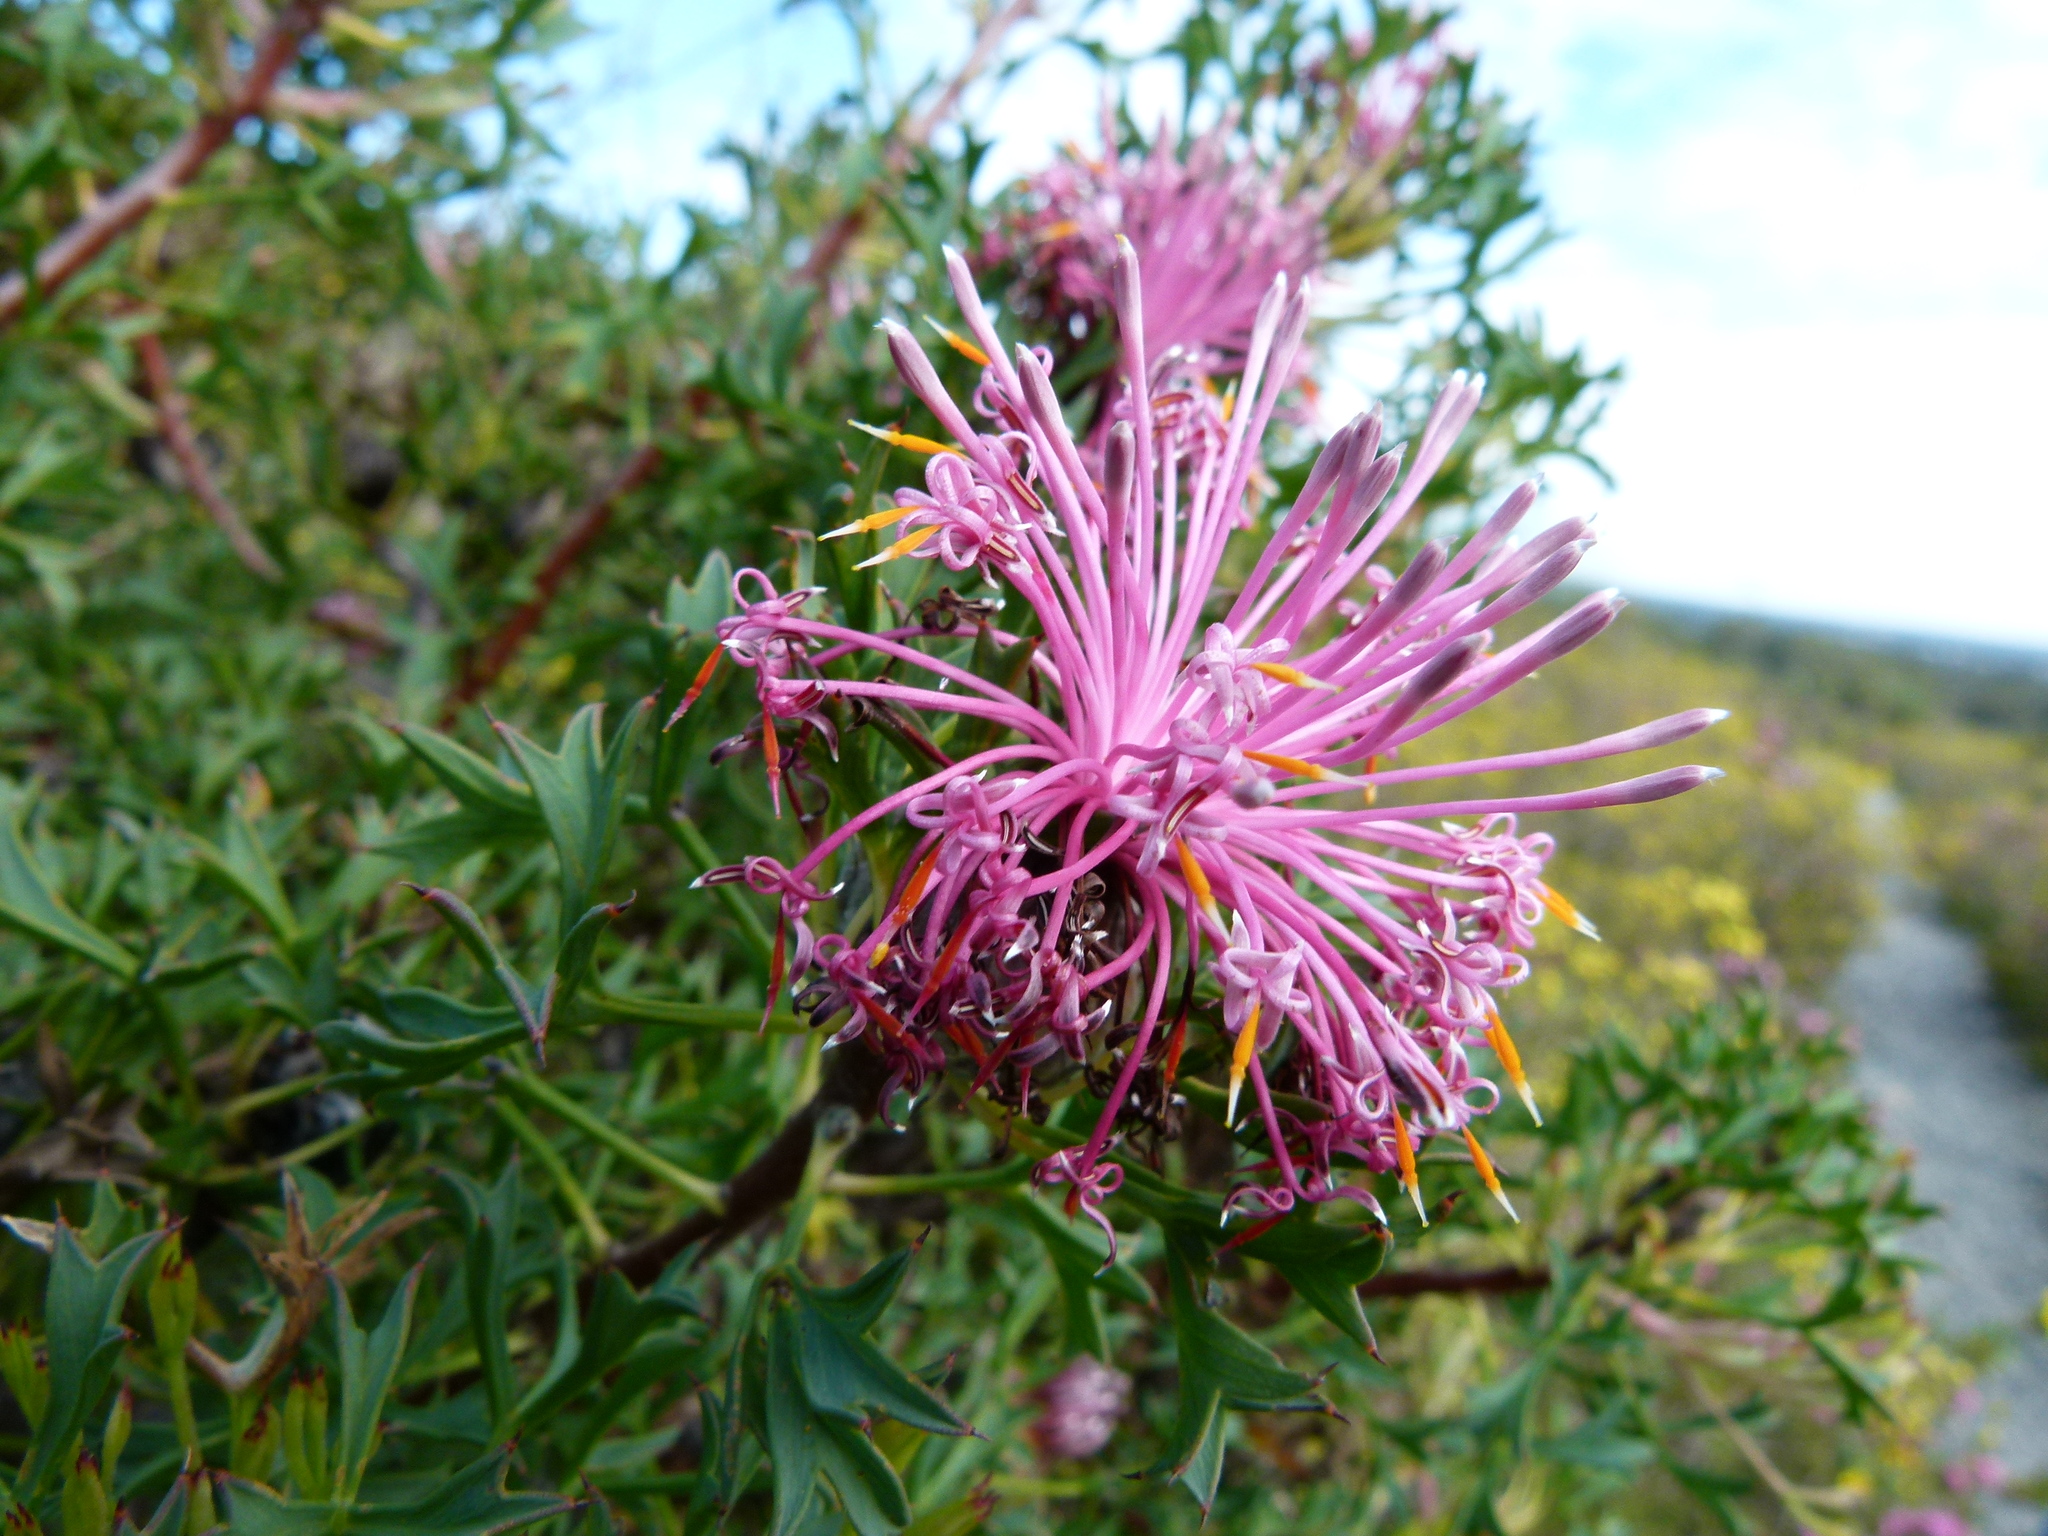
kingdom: Plantae
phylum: Tracheophyta
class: Magnoliopsida
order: Proteales
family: Proteaceae
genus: Isopogon
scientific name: Isopogon dubius
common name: Pincushion-coneflower
